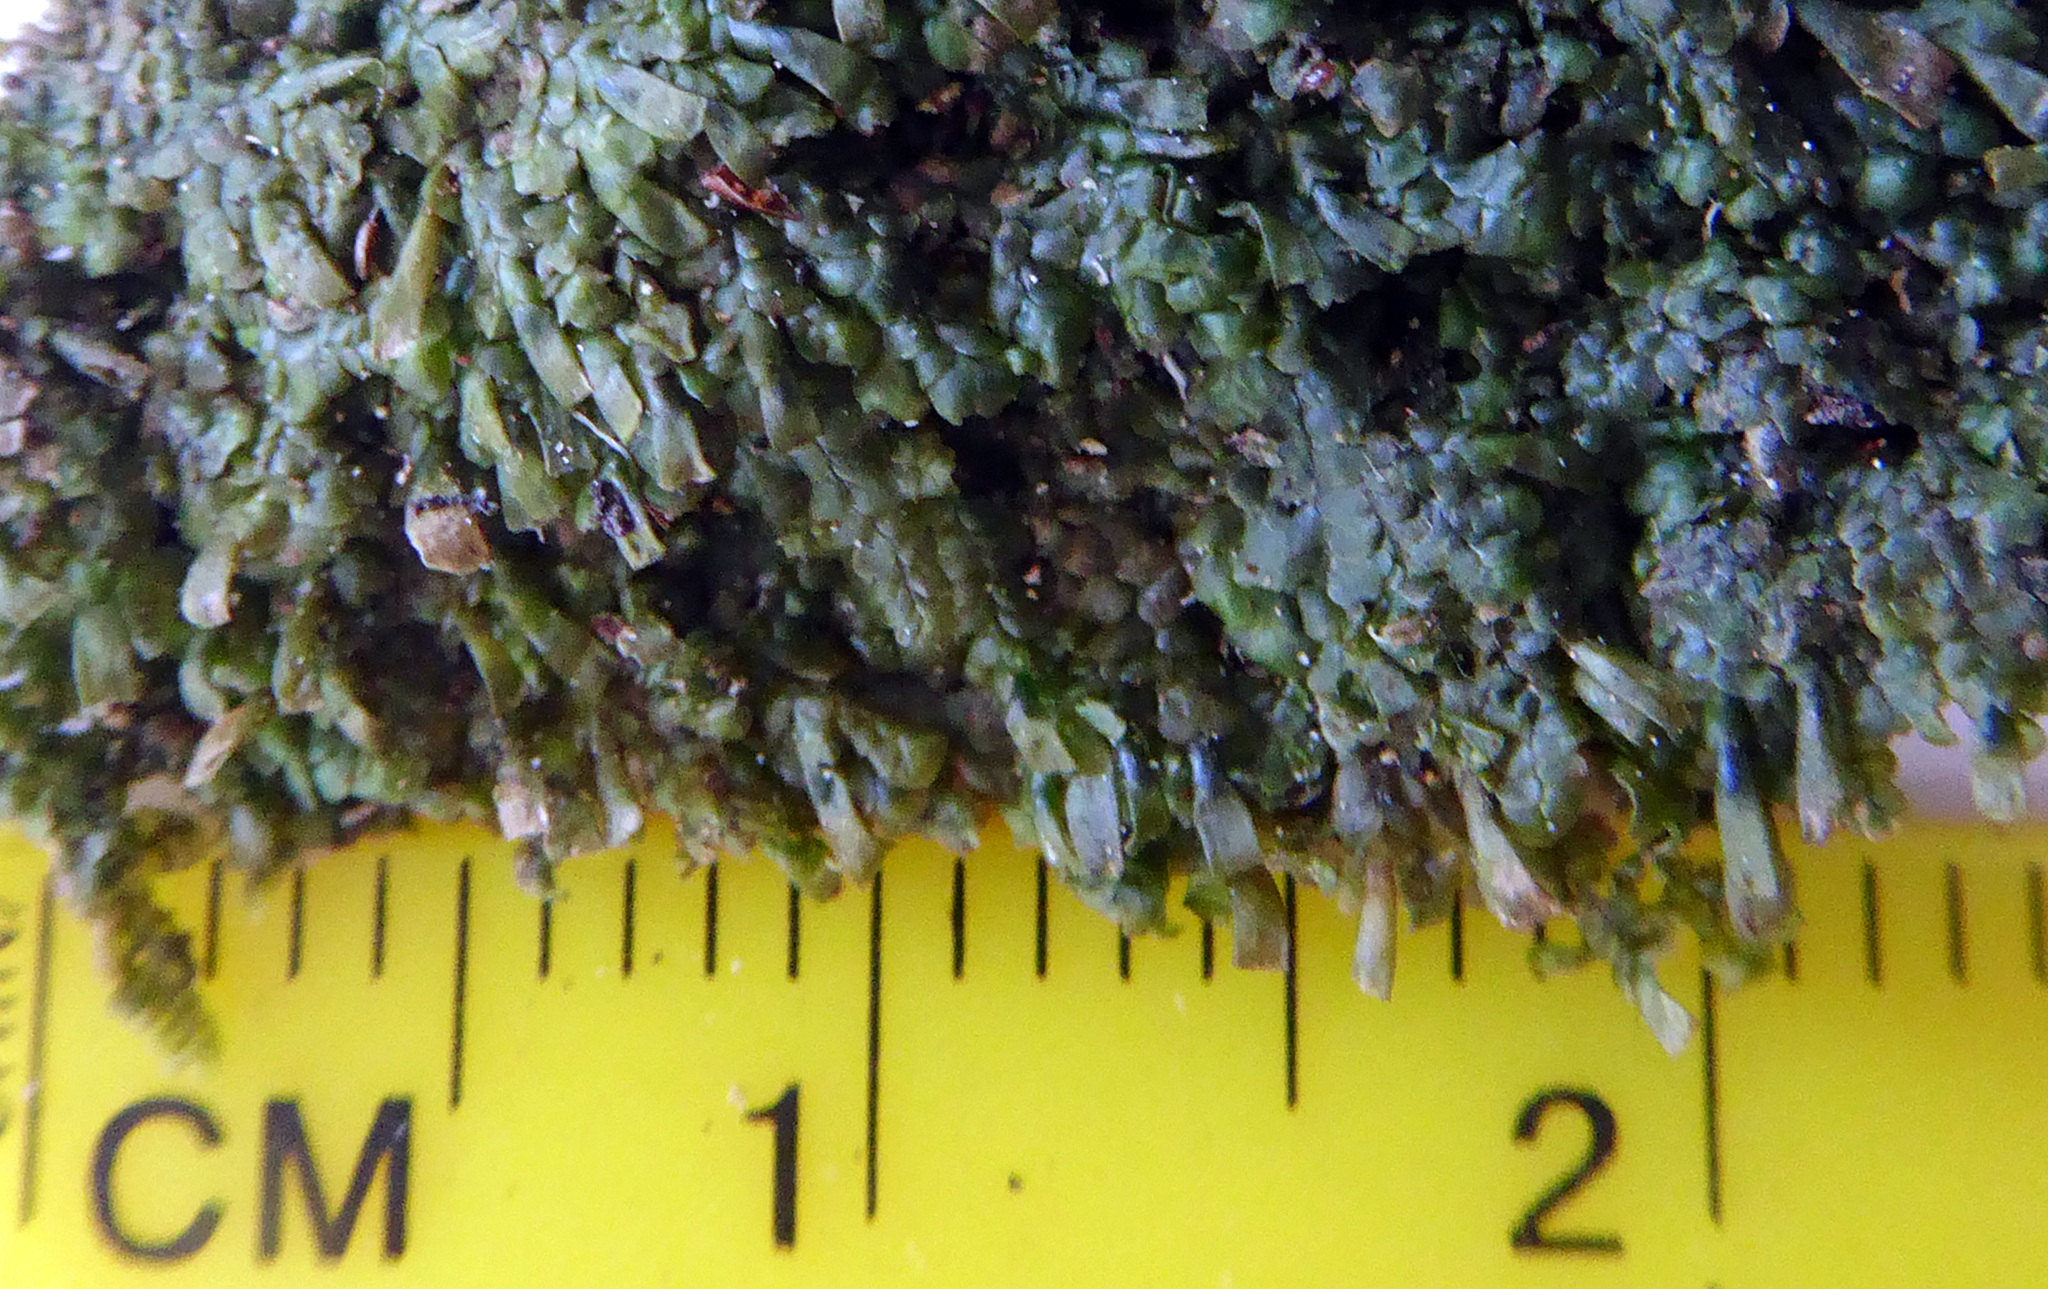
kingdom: Plantae
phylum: Marchantiophyta
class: Jungermanniopsida
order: Porellales
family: Radulaceae
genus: Radula
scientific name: Radula strangulata
